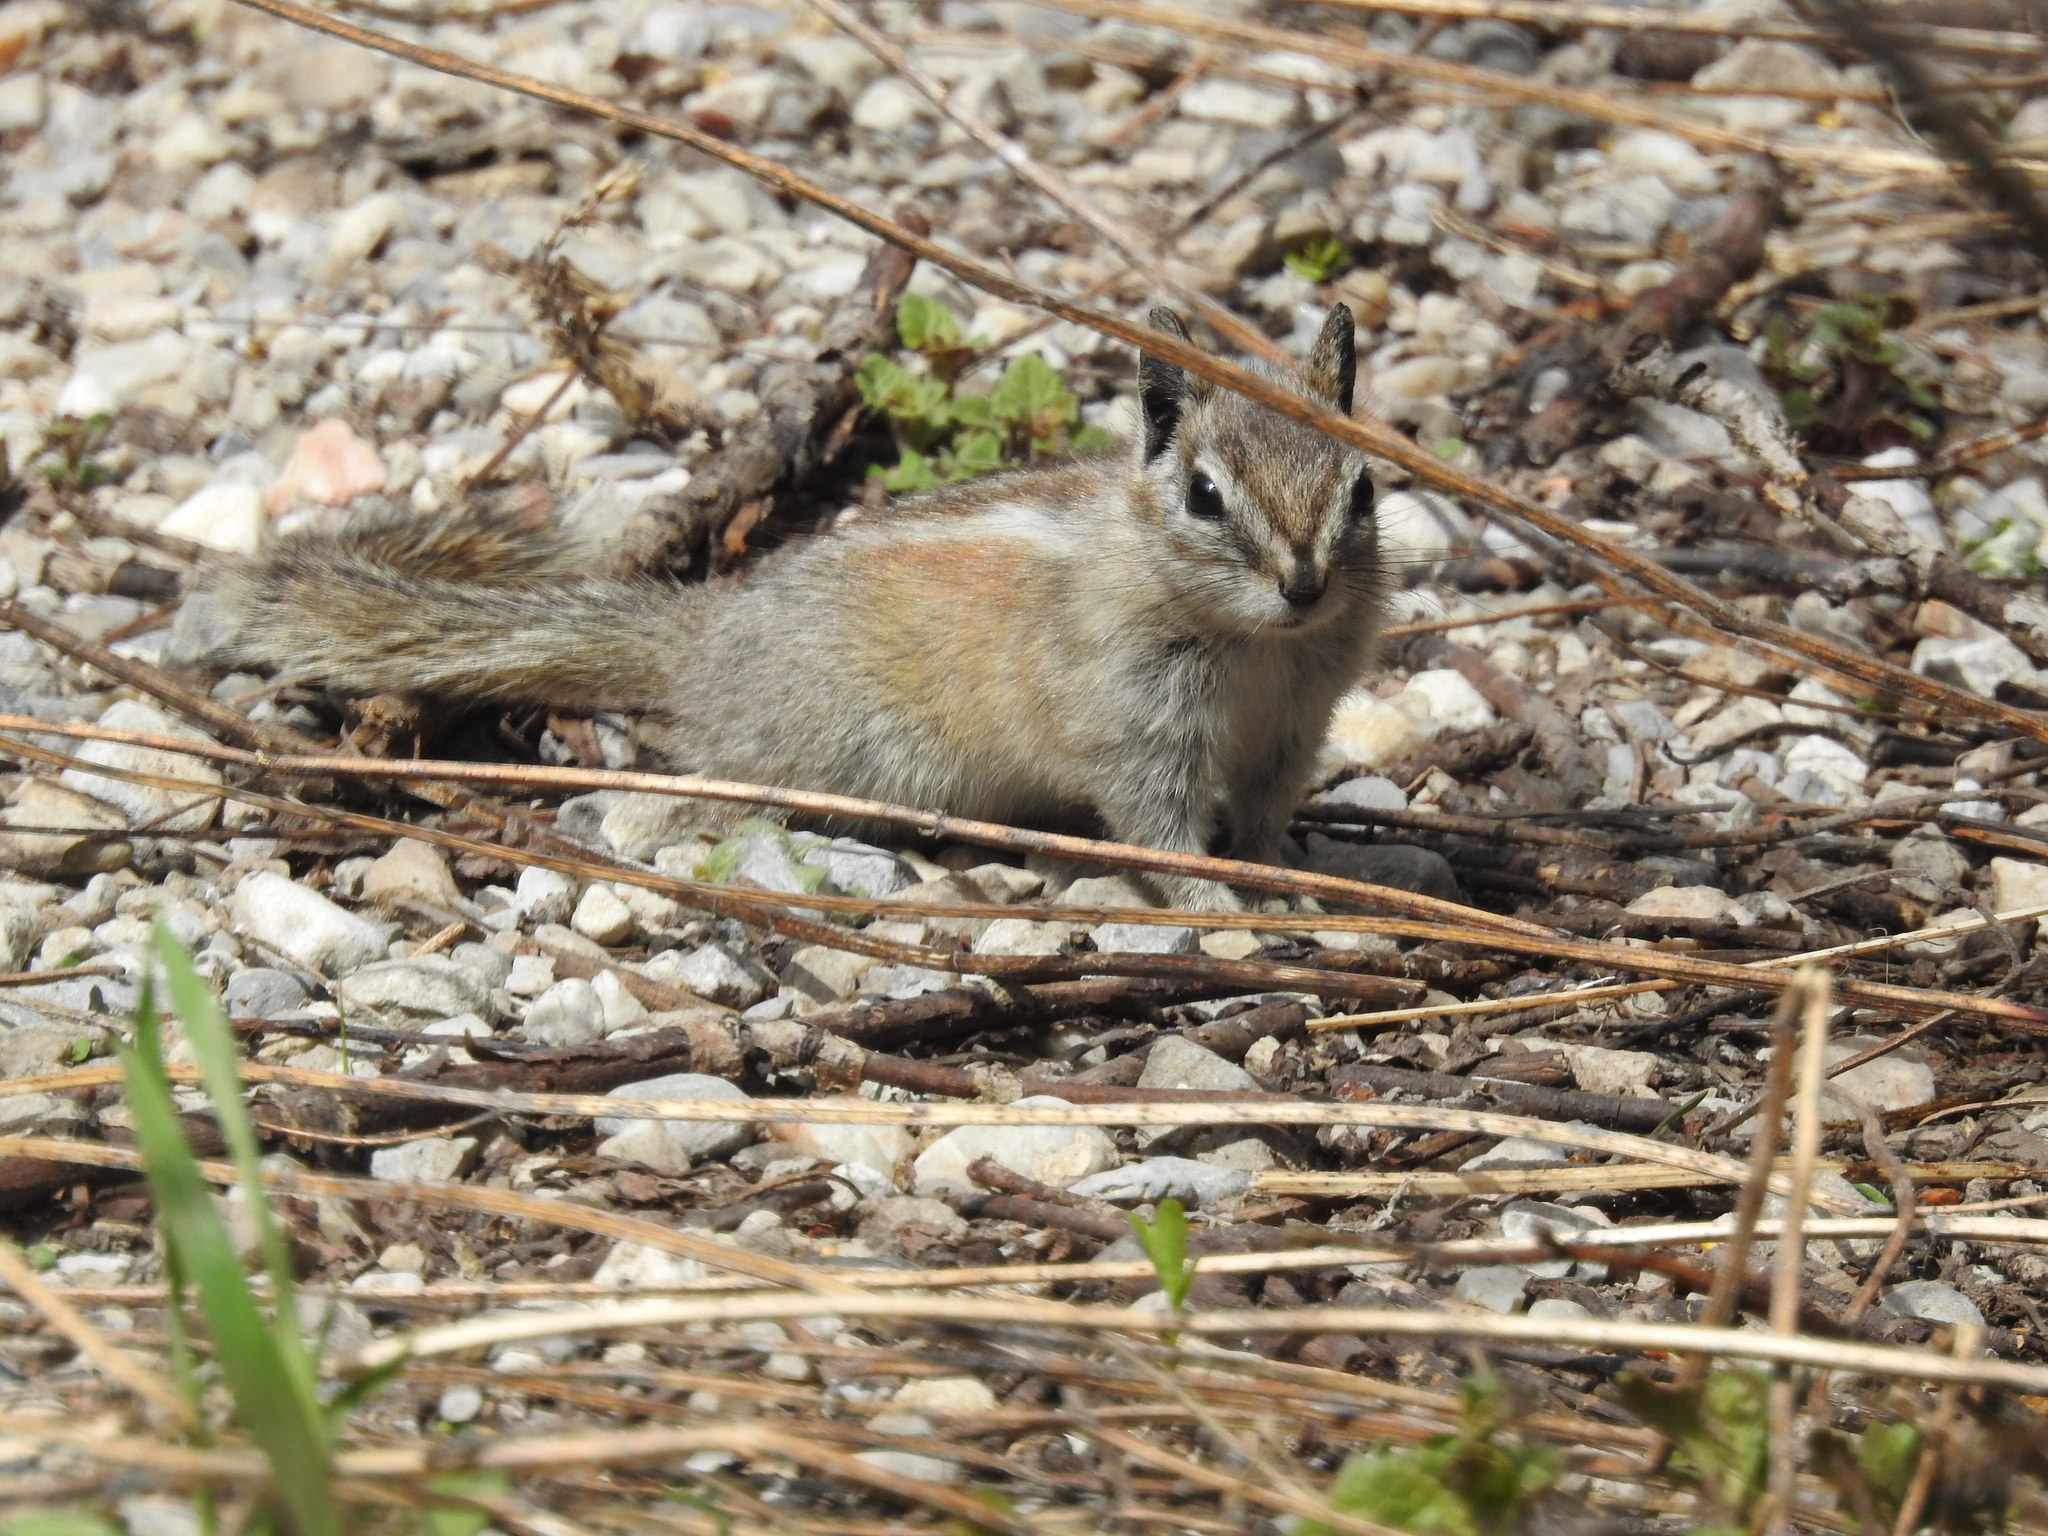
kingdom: Animalia
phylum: Chordata
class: Mammalia
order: Rodentia
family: Sciuridae
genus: Tamias
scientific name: Tamias dorsalis
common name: Cliff chipmunk
